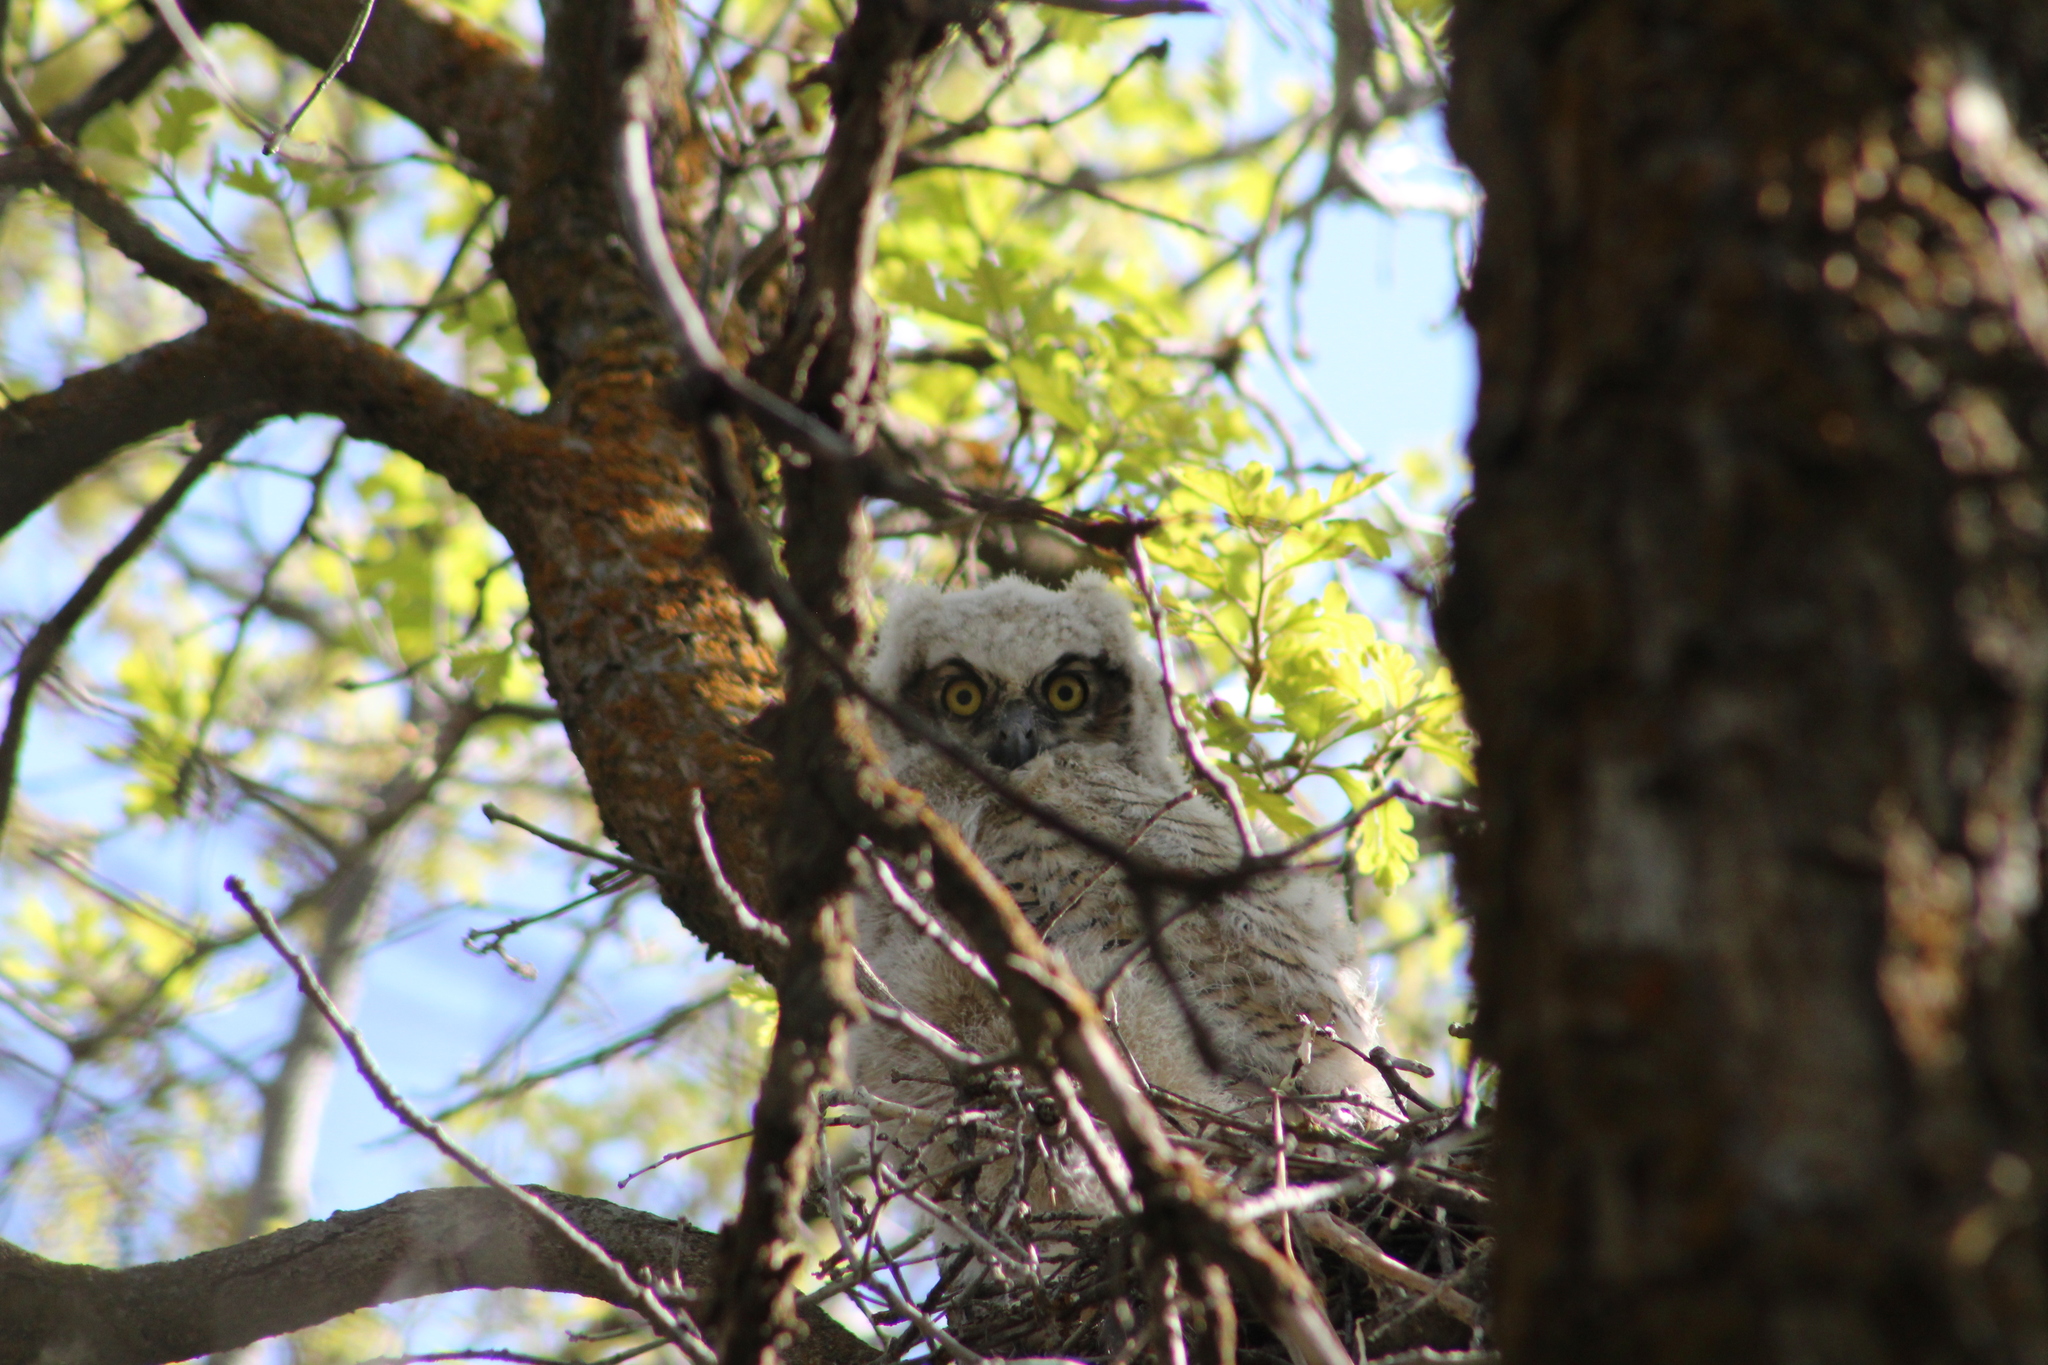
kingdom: Animalia
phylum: Chordata
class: Aves
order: Strigiformes
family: Strigidae
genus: Bubo
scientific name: Bubo virginianus
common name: Great horned owl
